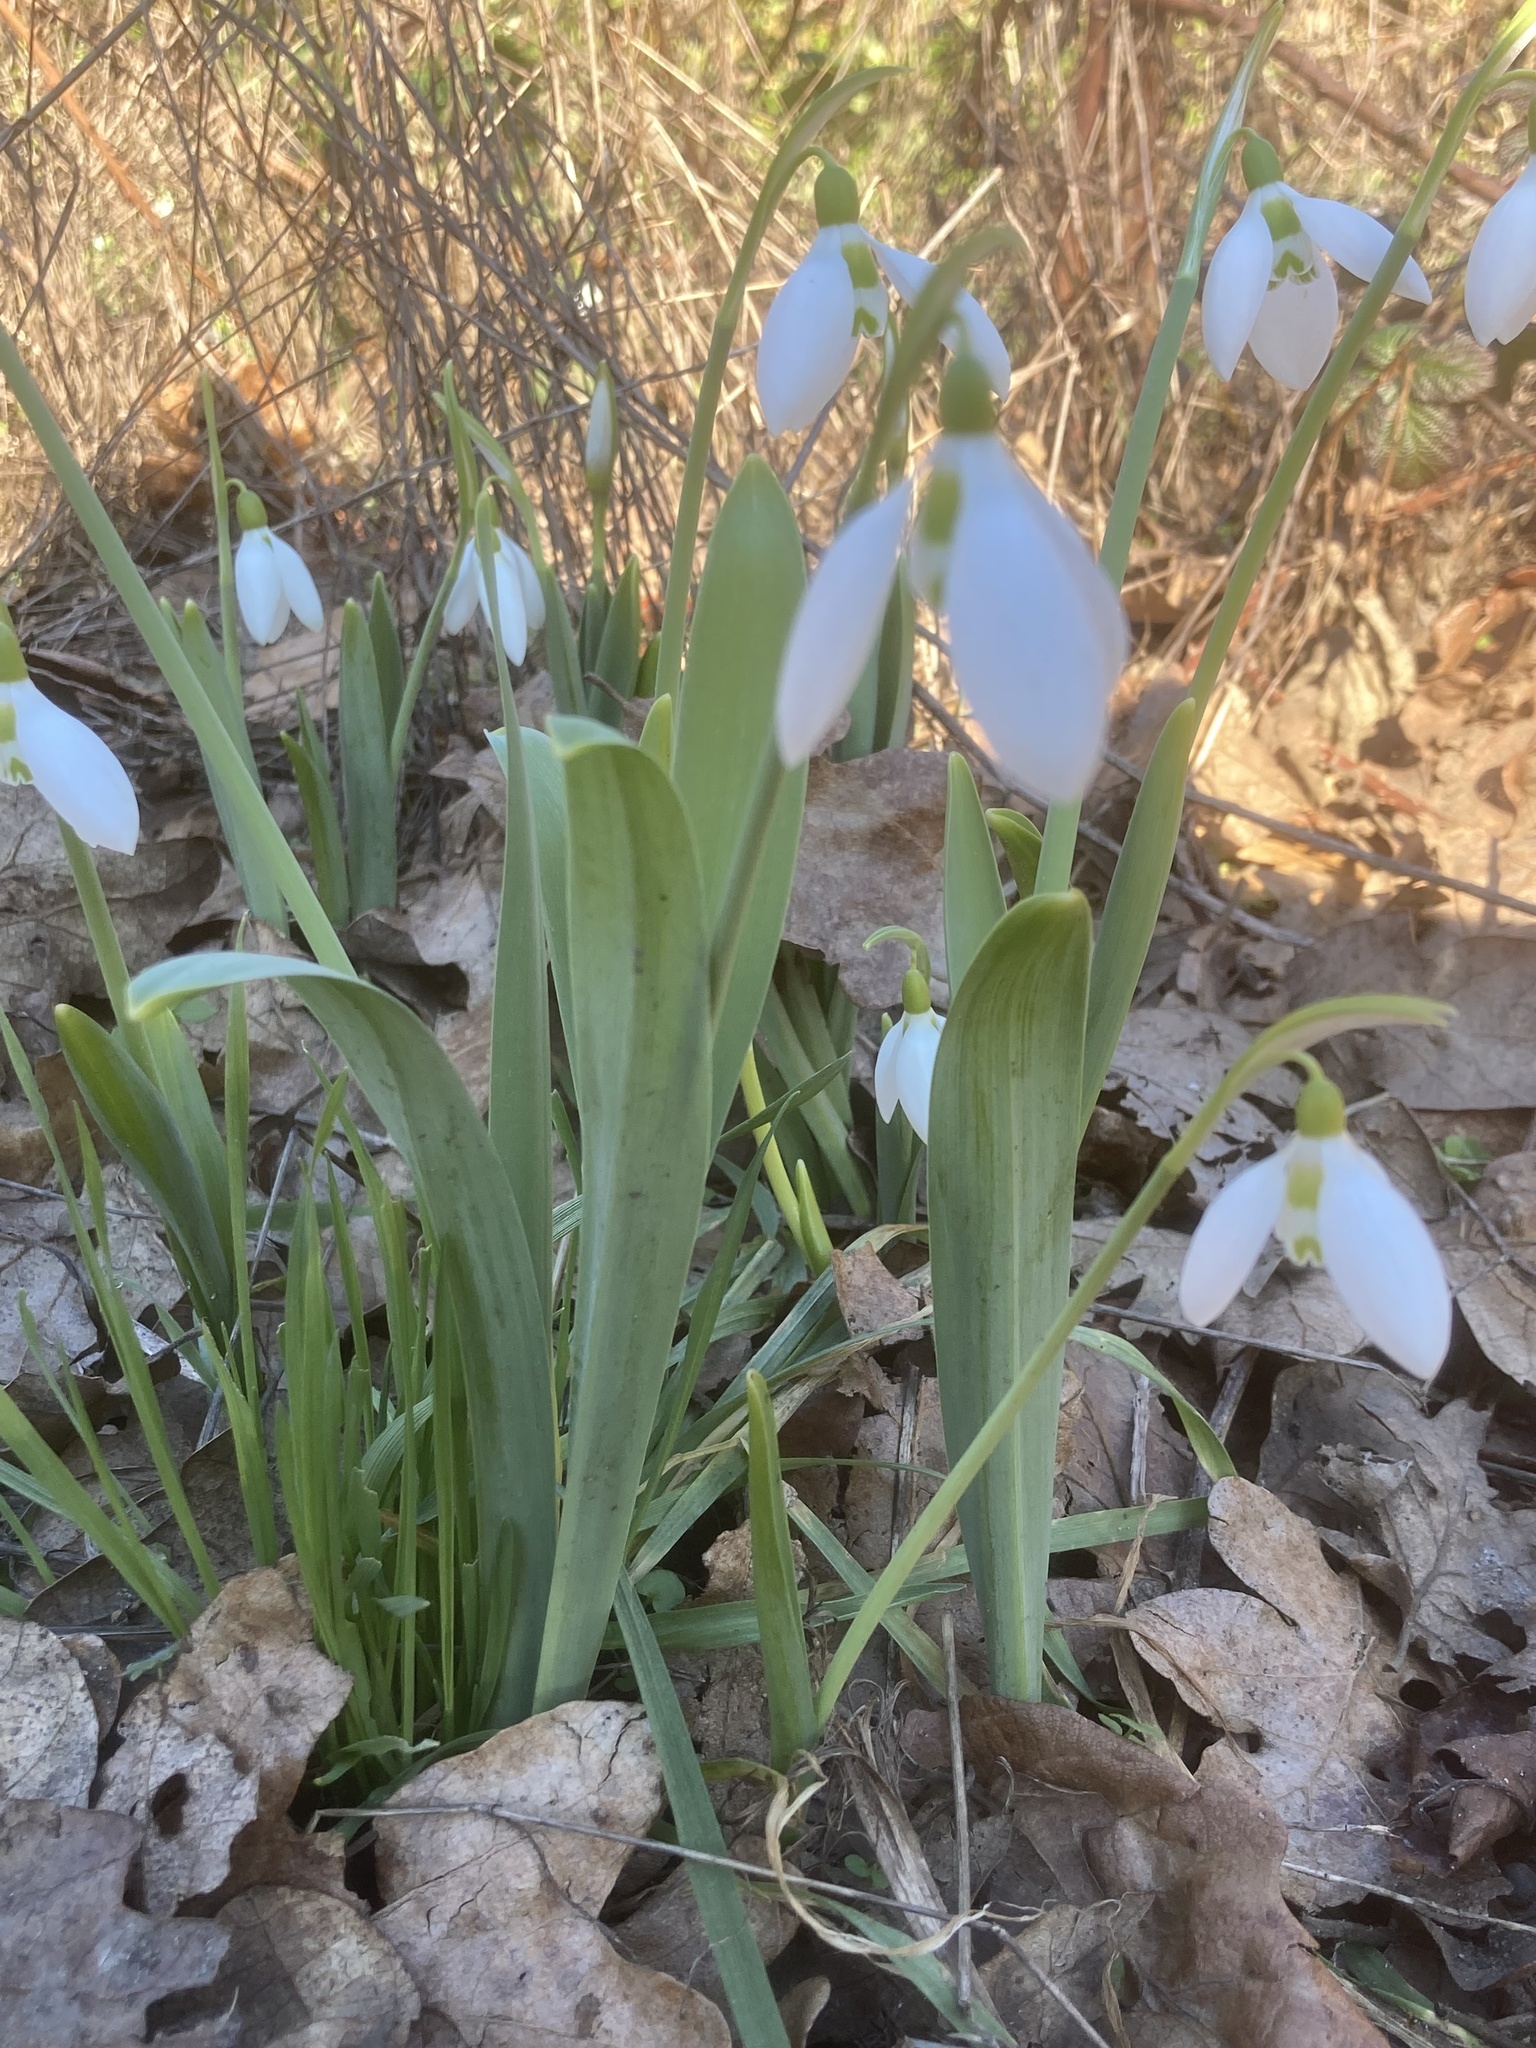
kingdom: Plantae
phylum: Tracheophyta
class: Liliopsida
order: Asparagales
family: Amaryllidaceae
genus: Galanthus
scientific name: Galanthus elwesii
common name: Greater snowdrop
